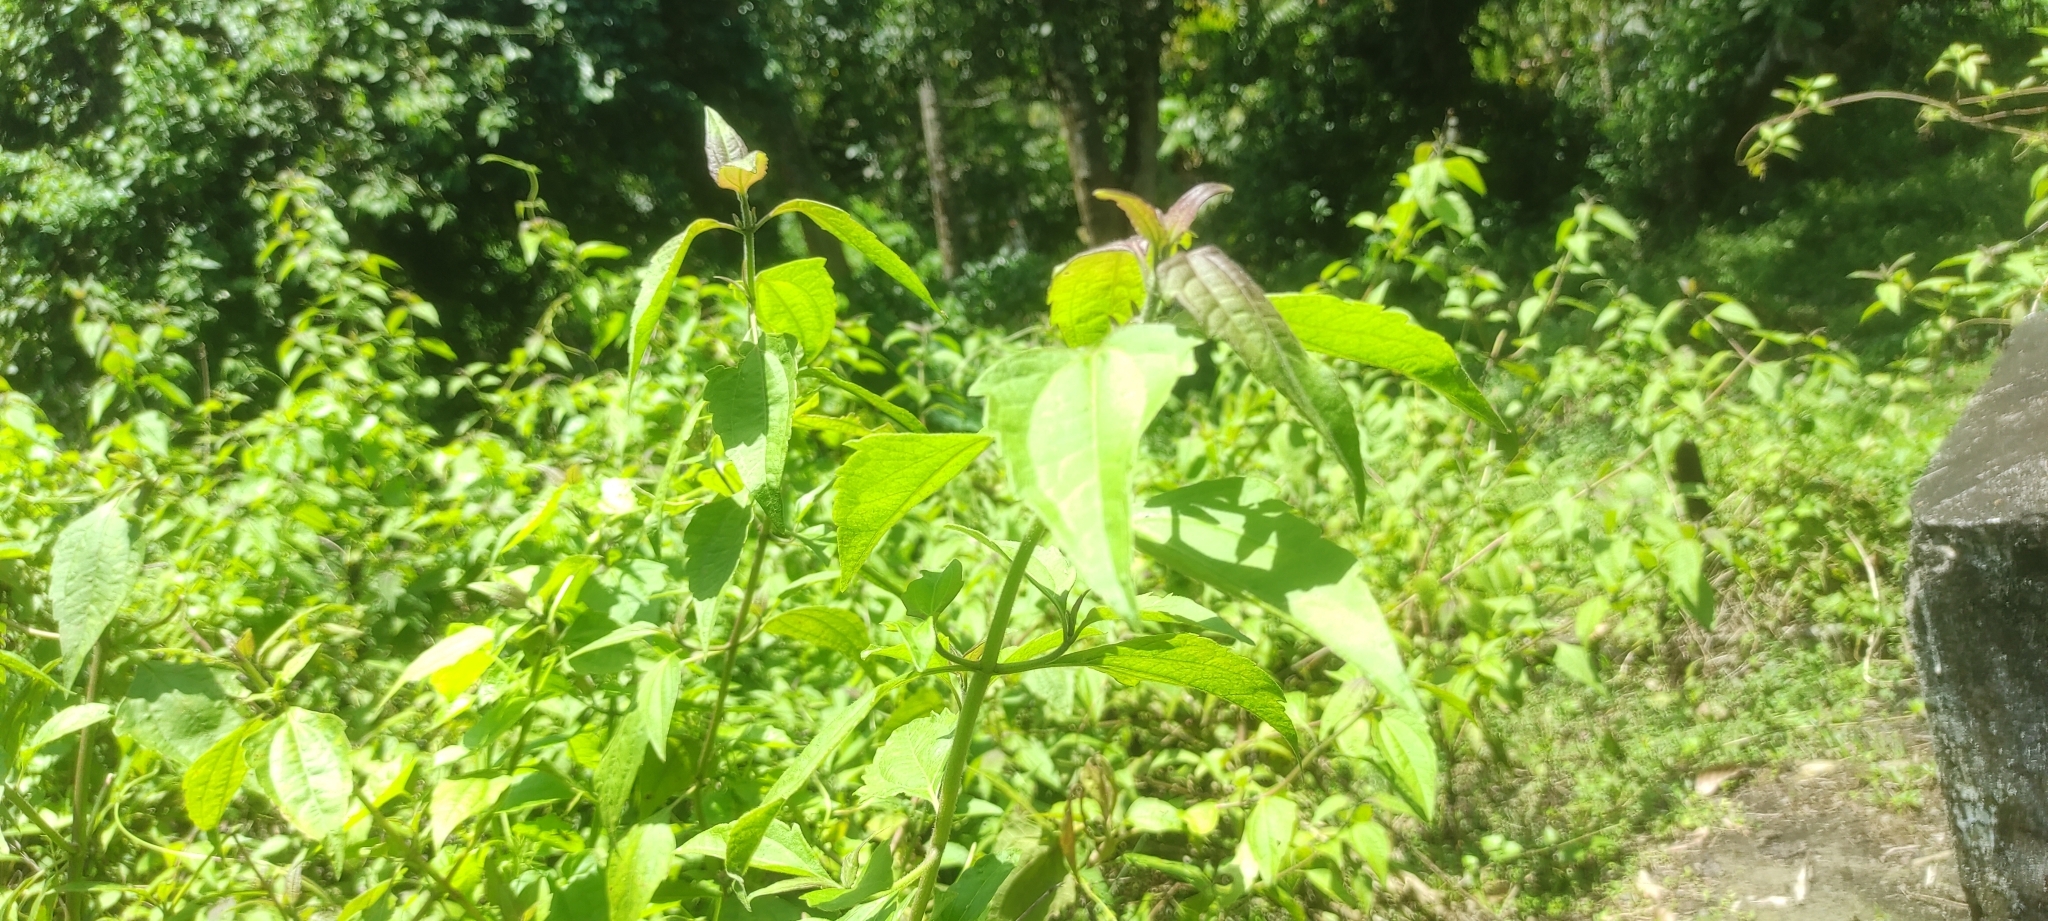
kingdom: Plantae
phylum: Tracheophyta
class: Magnoliopsida
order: Asterales
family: Asteraceae
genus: Chromolaena
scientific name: Chromolaena odorata
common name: Siamweed
